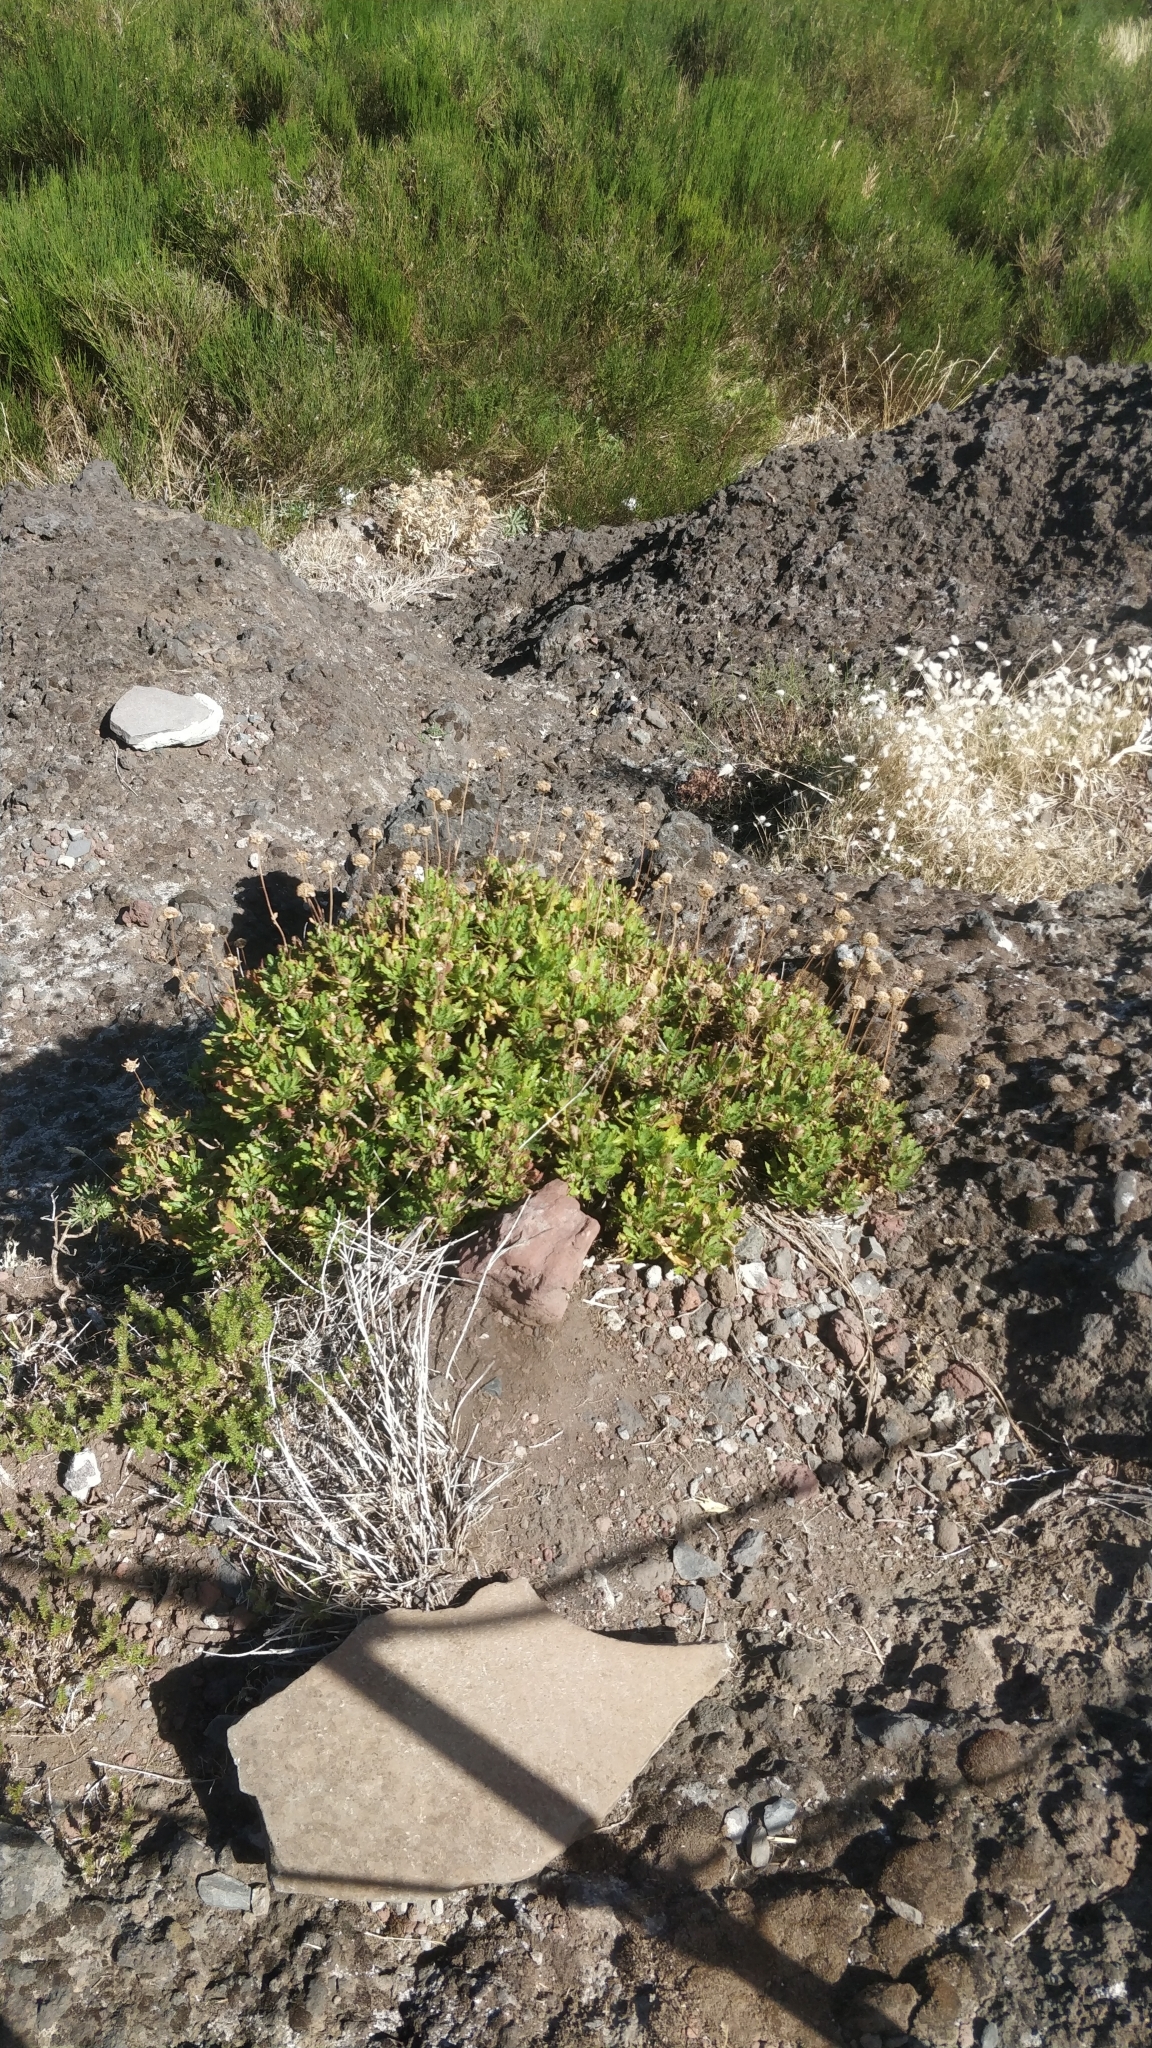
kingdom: Plantae
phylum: Tracheophyta
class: Magnoliopsida
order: Asterales
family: Asteraceae
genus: Argyranthemum
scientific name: Argyranthemum pinnatifidum
